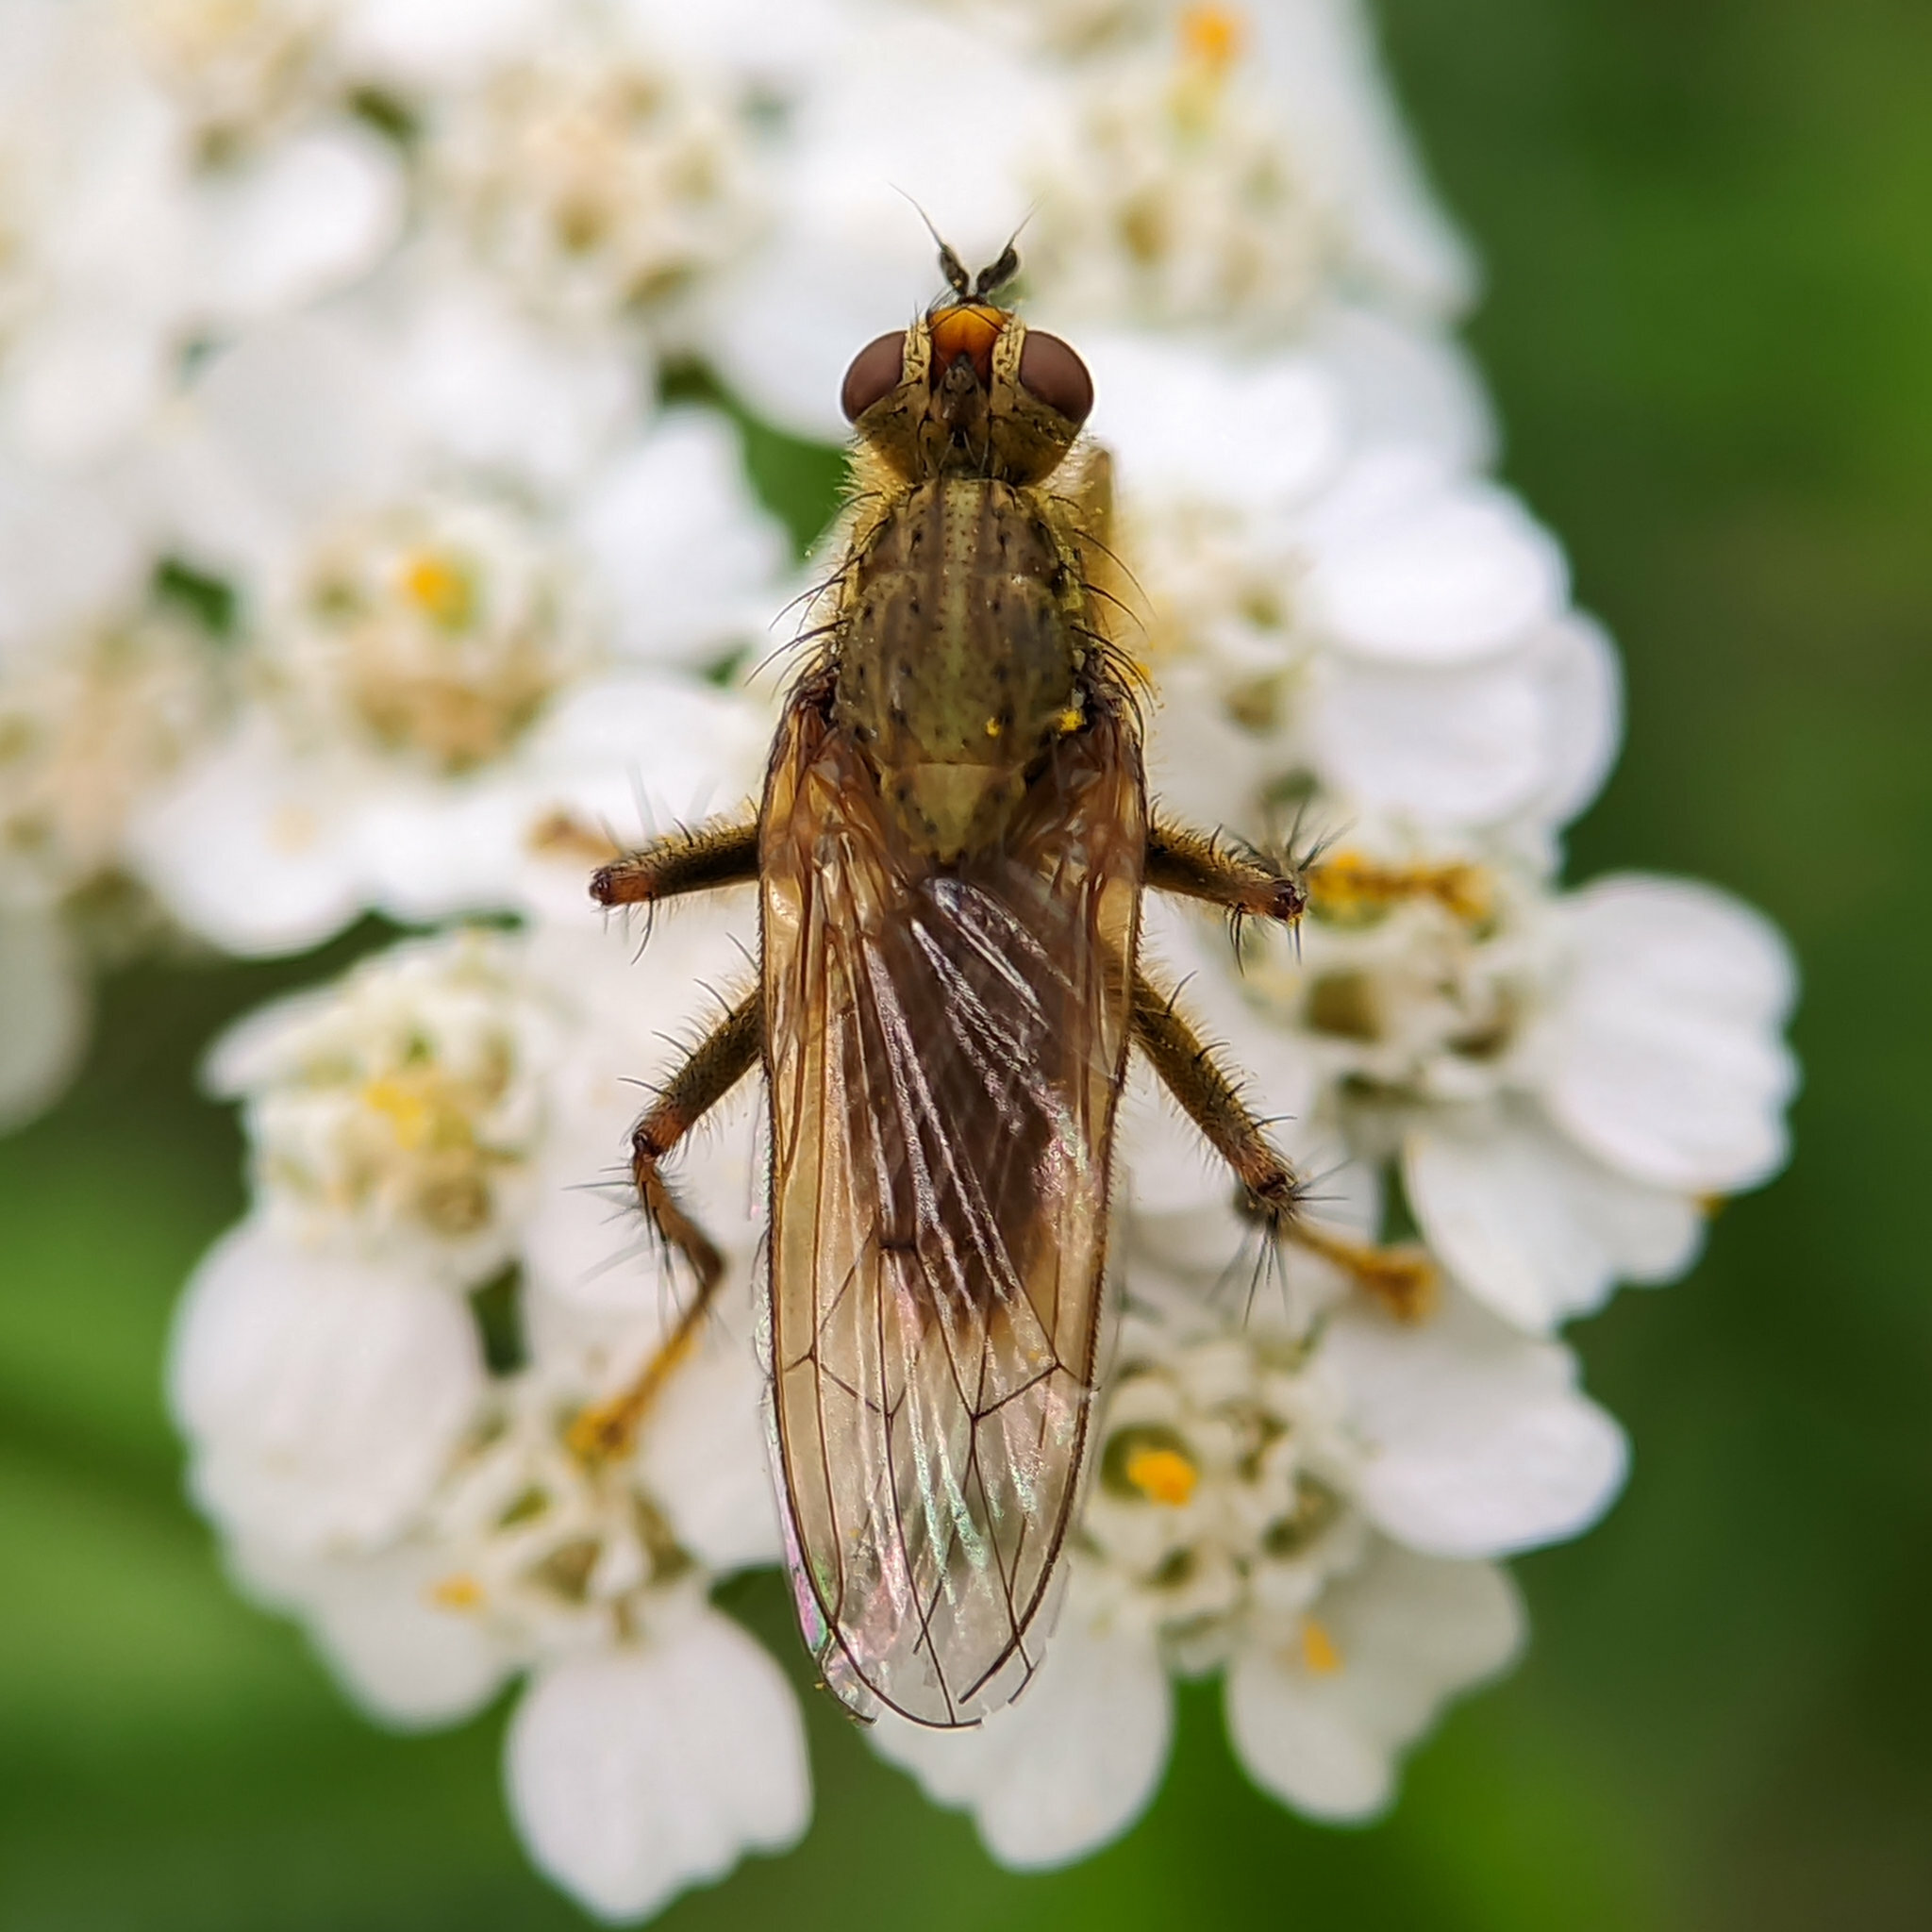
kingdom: Animalia
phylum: Arthropoda
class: Insecta
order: Diptera
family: Scathophagidae
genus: Scathophaga
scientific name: Scathophaga stercoraria
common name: Yellow dung fly
